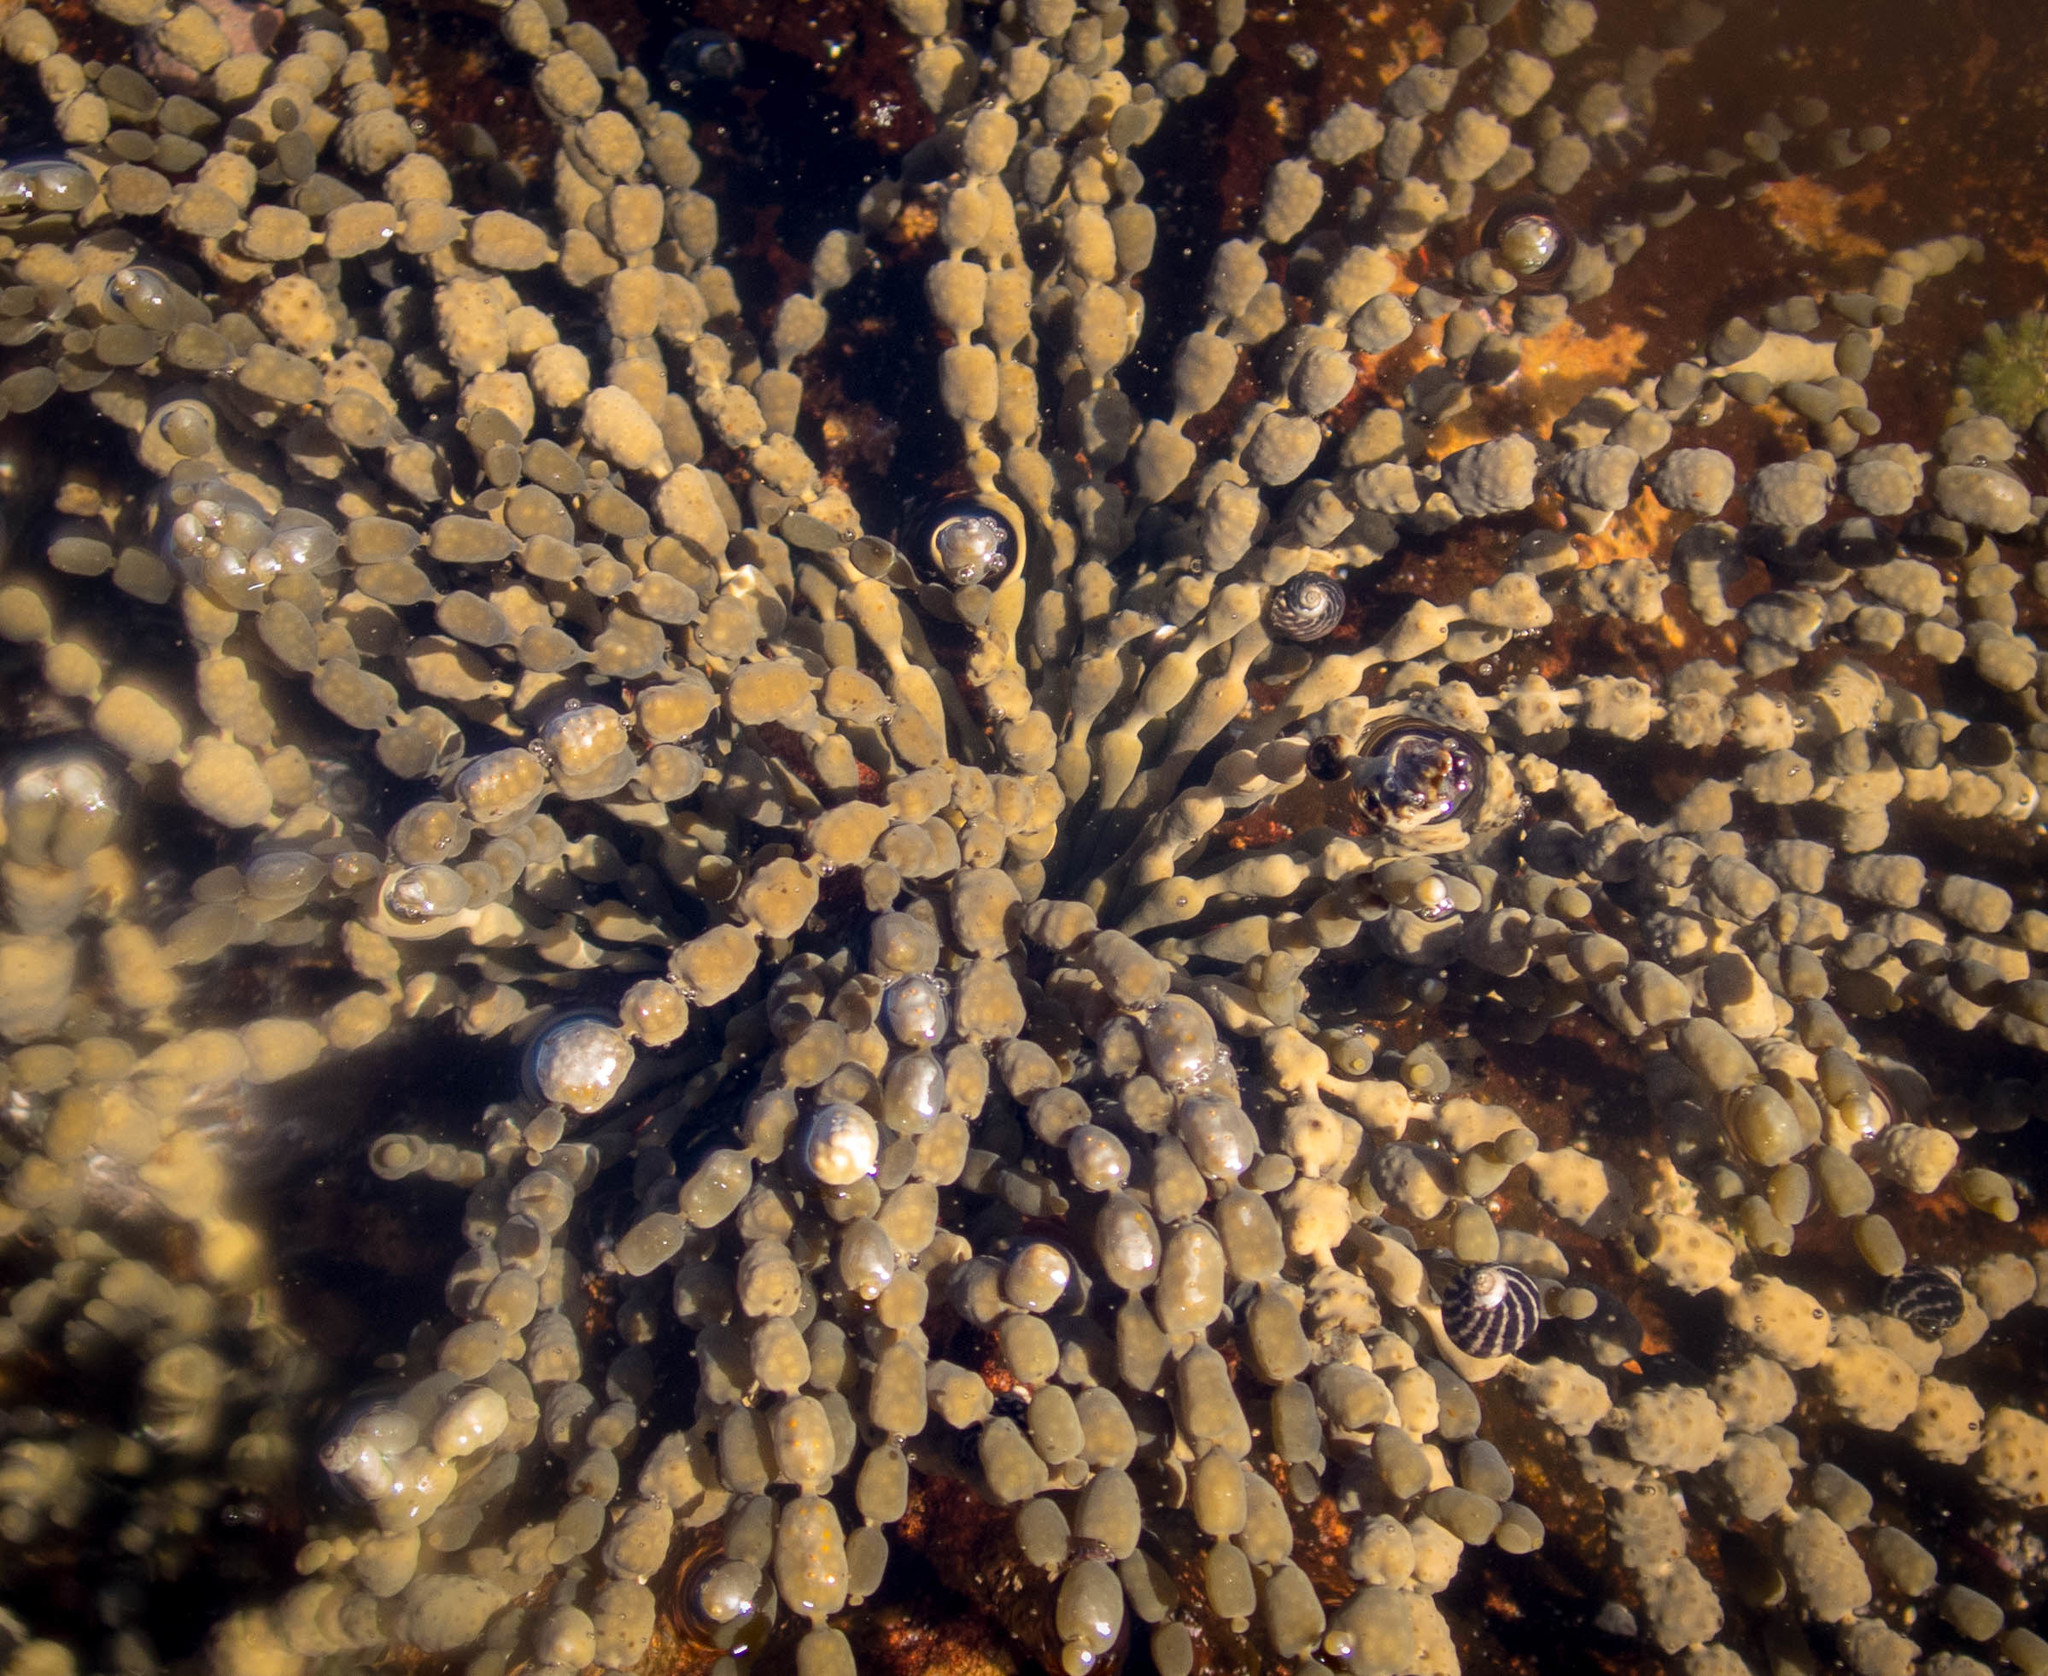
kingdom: Chromista
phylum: Ochrophyta
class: Phaeophyceae
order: Fucales
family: Hormosiraceae
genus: Hormosira
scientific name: Hormosira banksii
